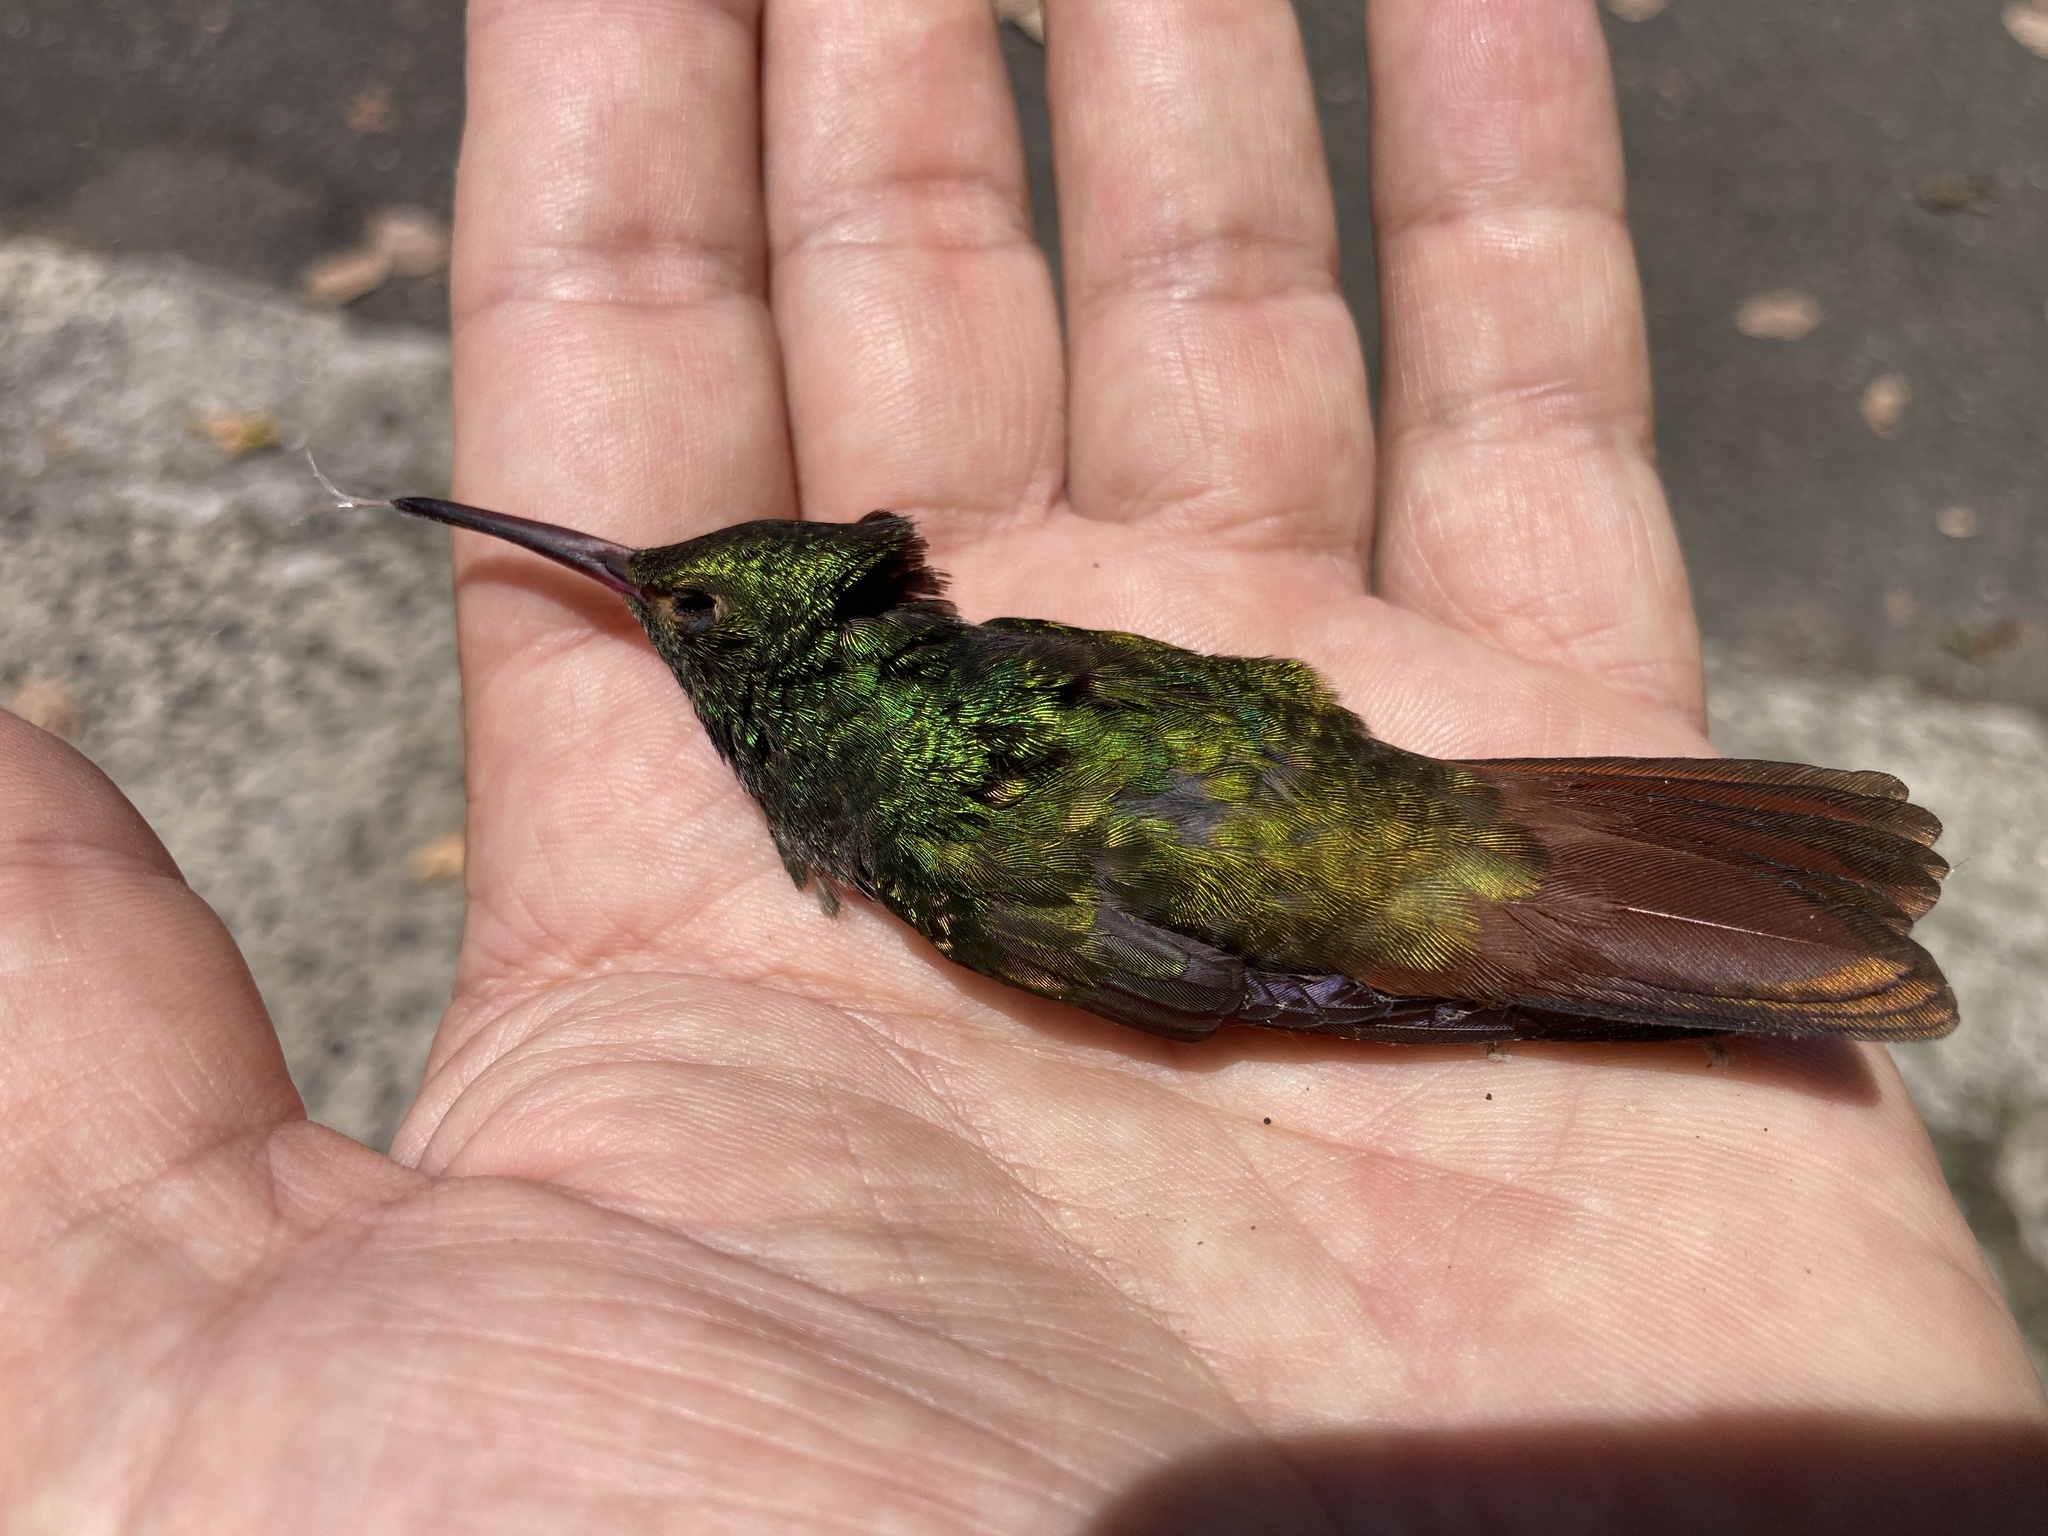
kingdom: Animalia
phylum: Chordata
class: Aves
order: Apodiformes
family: Trochilidae
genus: Amazilia
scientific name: Amazilia tzacatl
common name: Rufous-tailed hummingbird
